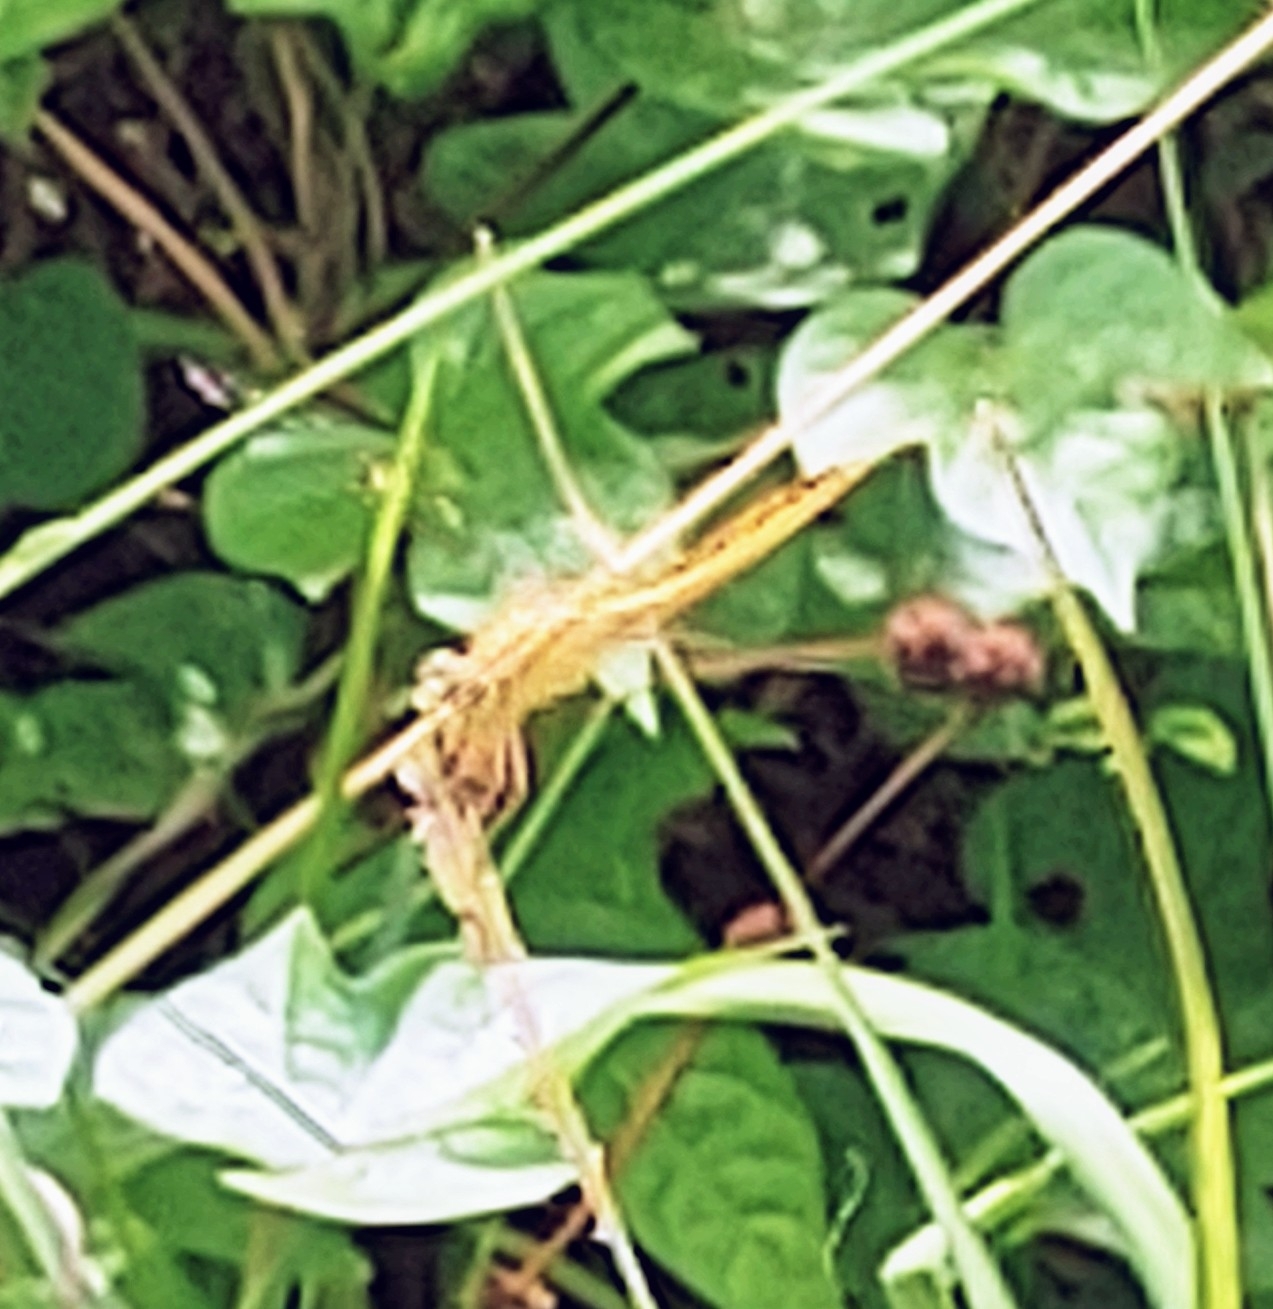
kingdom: Animalia
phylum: Arthropoda
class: Insecta
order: Odonata
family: Libellulidae
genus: Crocothemis
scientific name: Crocothemis servilia
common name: Scarlet skimmer
